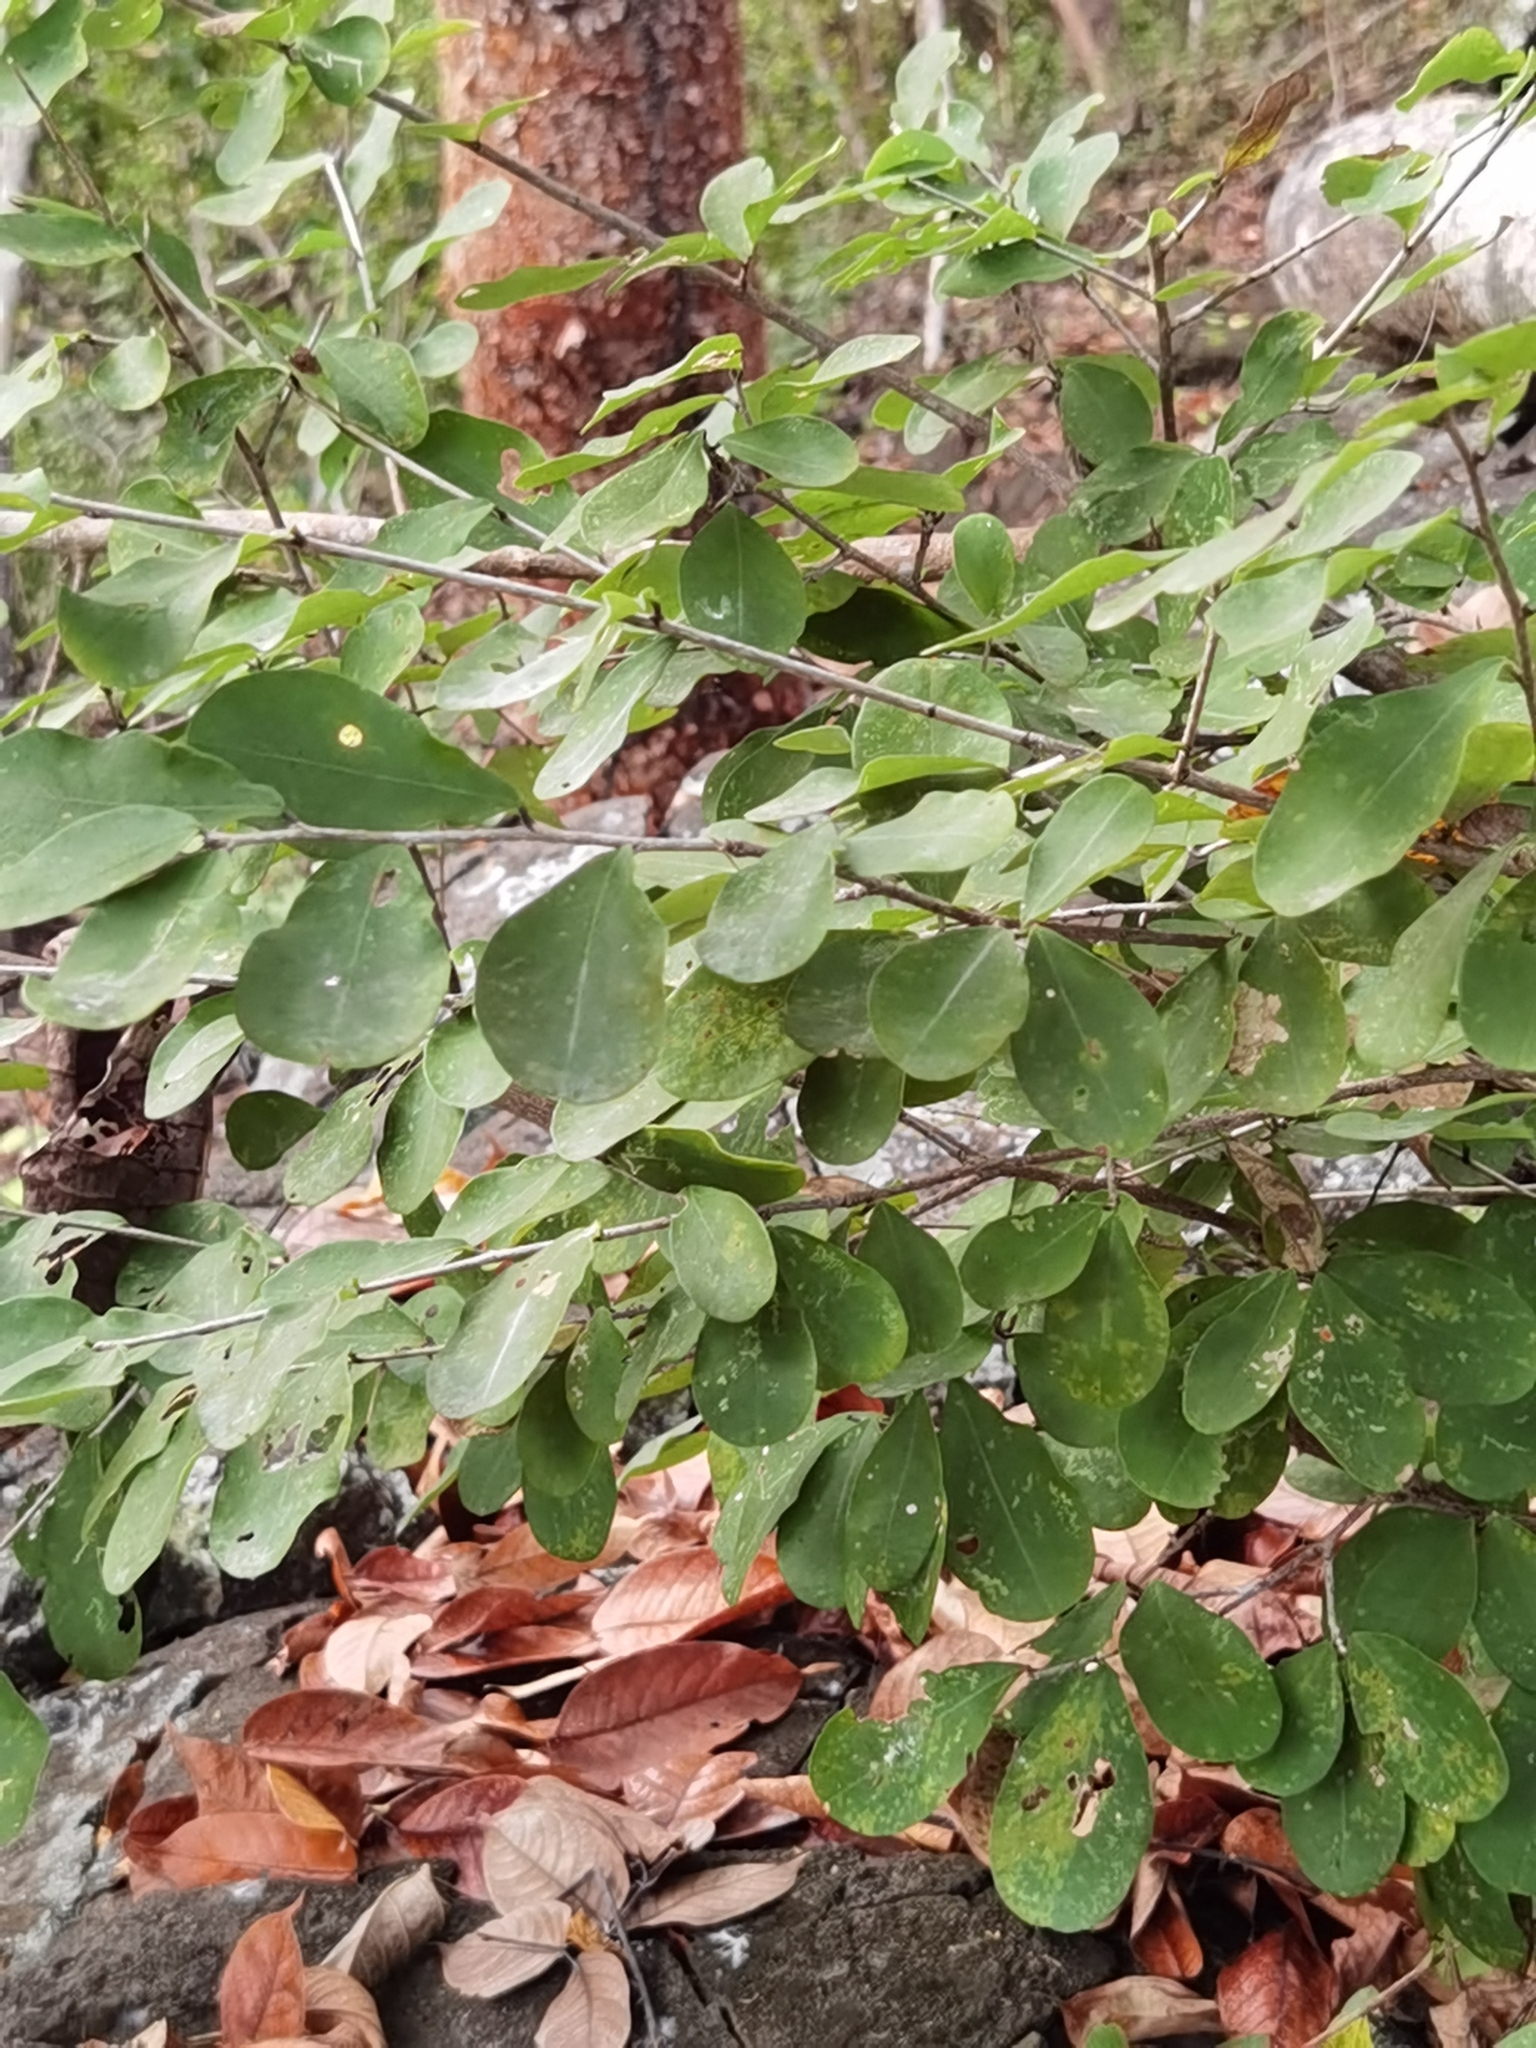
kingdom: Plantae
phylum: Tracheophyta
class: Magnoliopsida
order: Malpighiales
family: Erythroxylaceae
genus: Erythroxylum
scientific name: Erythroxylum havanense
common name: Bracelet
